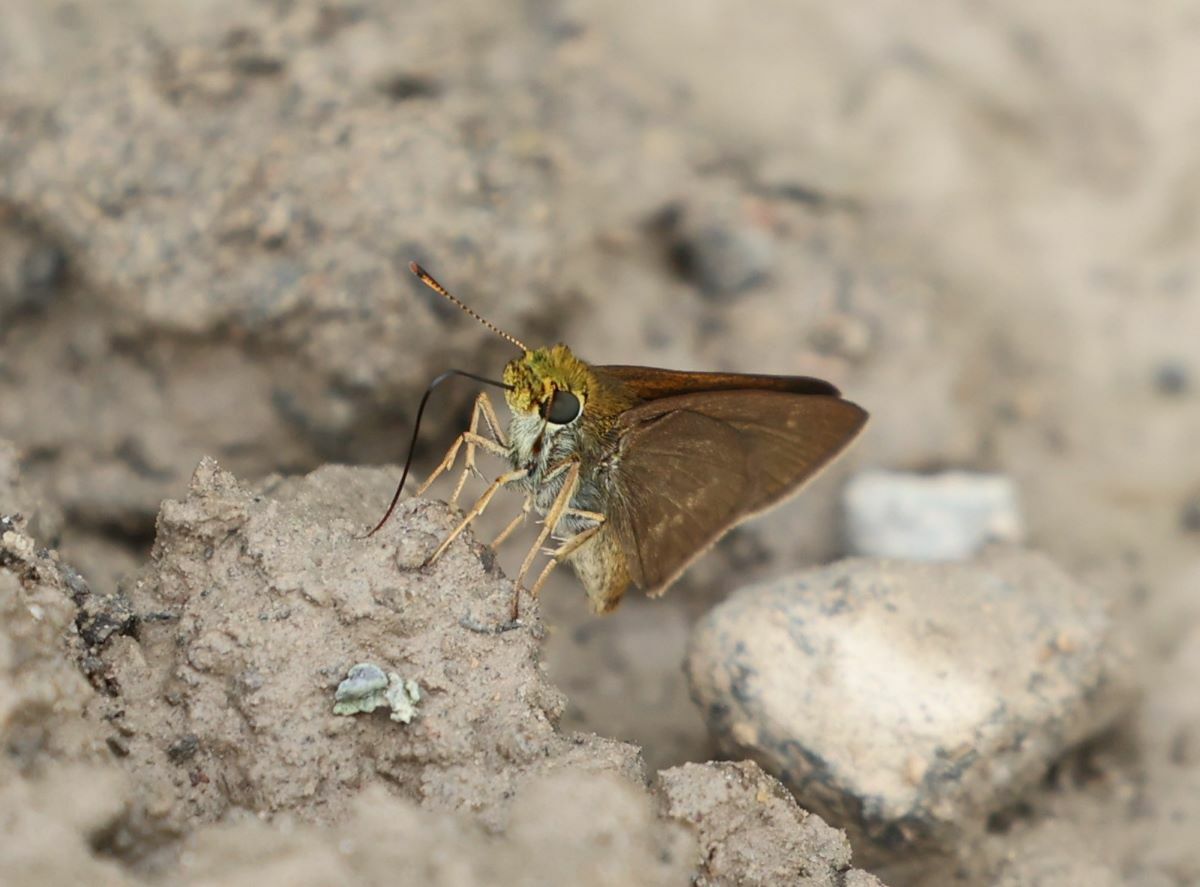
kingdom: Animalia
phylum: Arthropoda
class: Insecta
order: Lepidoptera
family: Hesperiidae
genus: Euphyes
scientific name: Euphyes vestris
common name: Dun skipper
